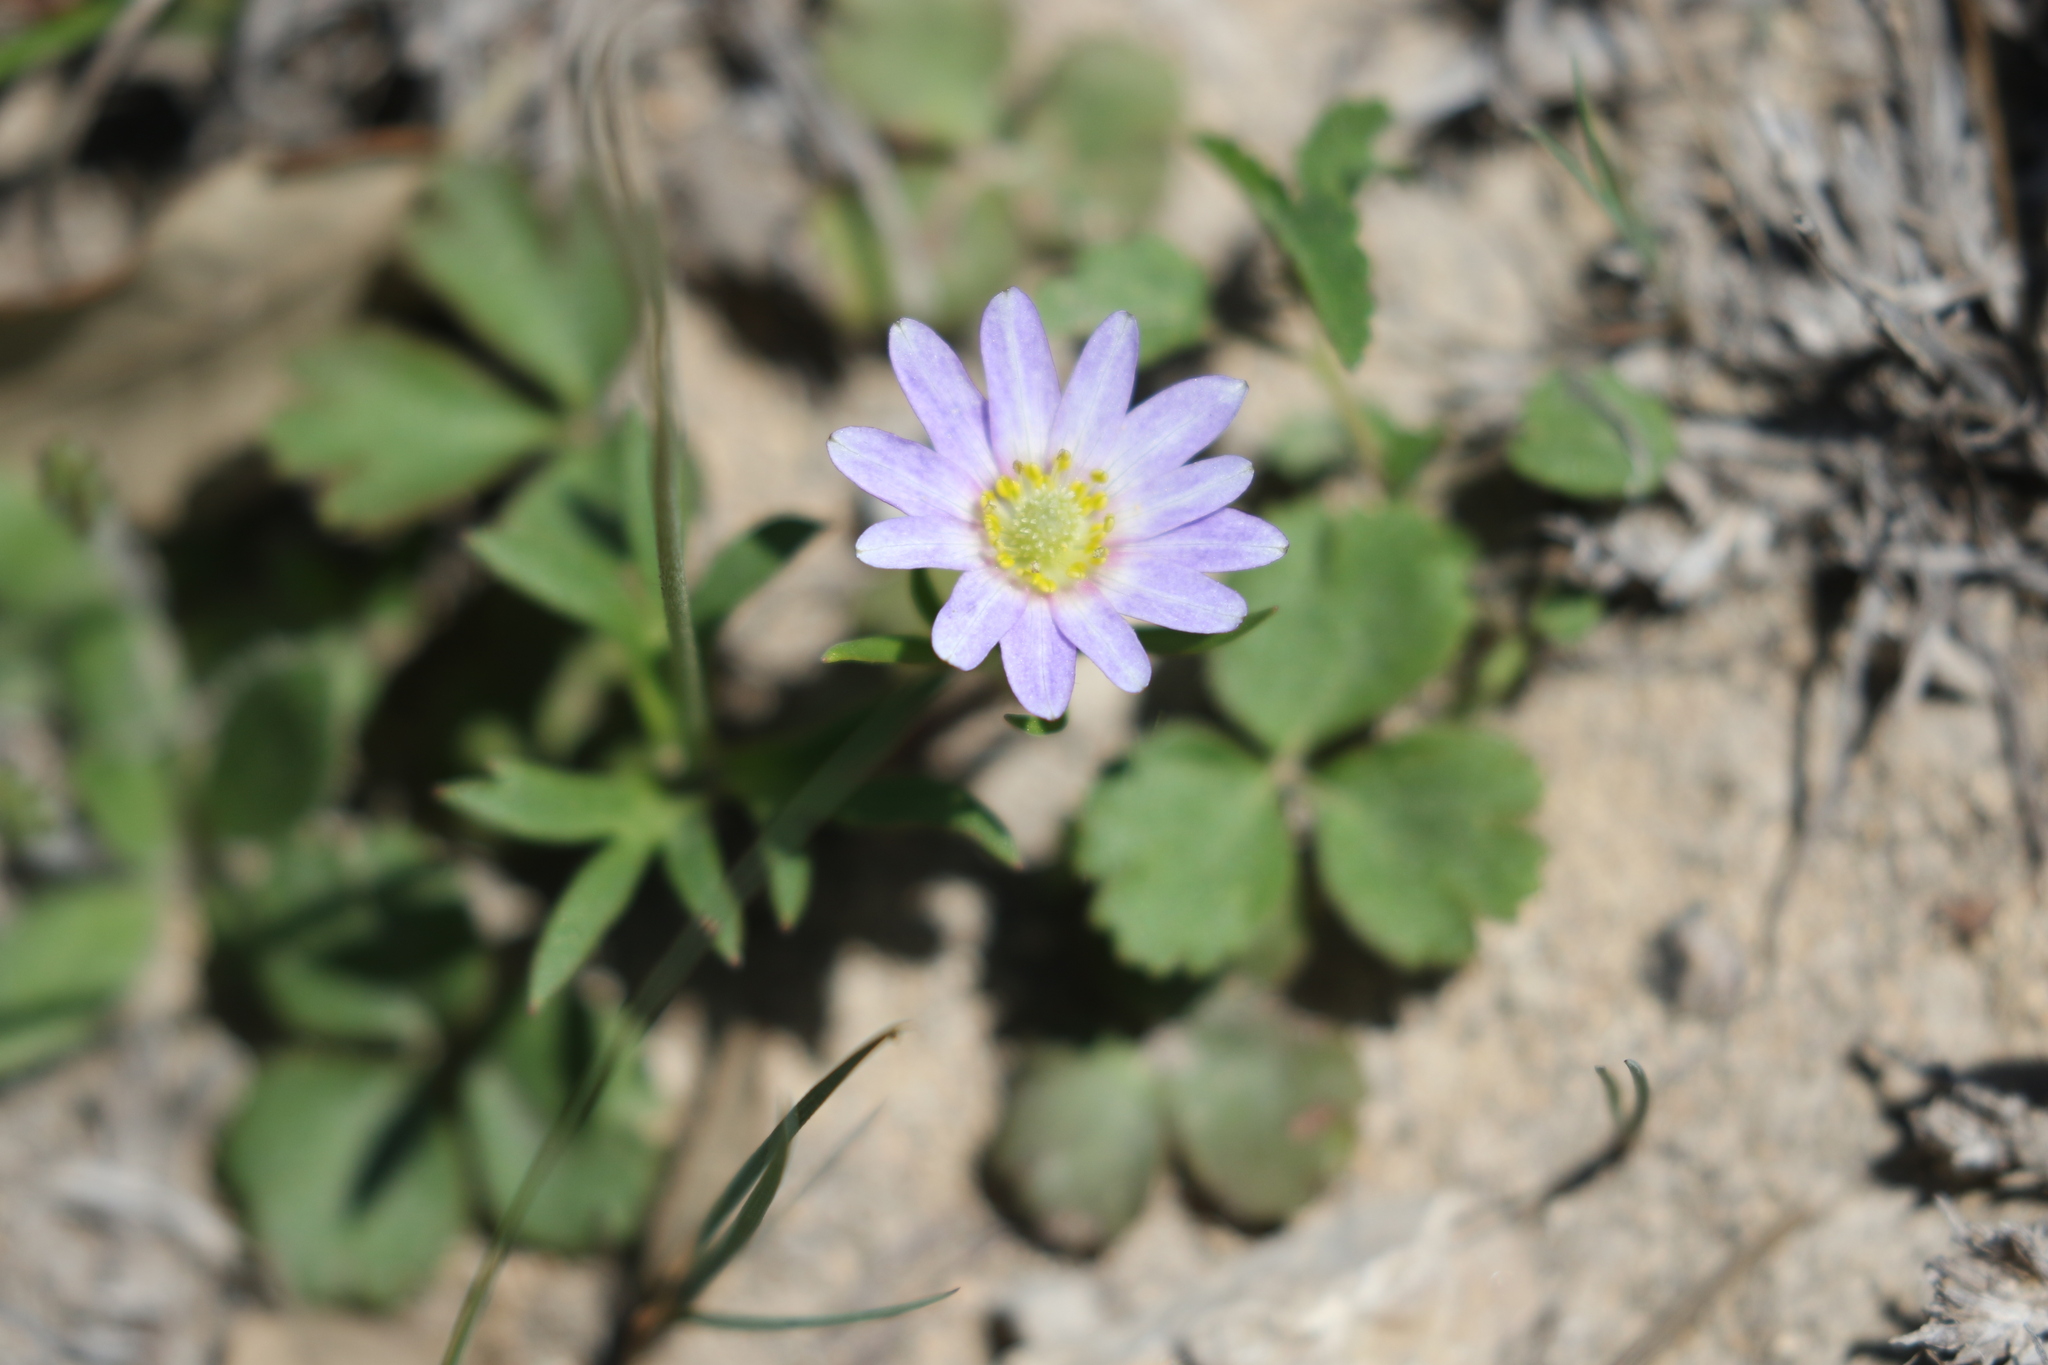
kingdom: Plantae
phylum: Tracheophyta
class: Magnoliopsida
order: Ranunculales
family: Ranunculaceae
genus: Anemone
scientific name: Anemone berlandieri
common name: Ten-petal anemone
